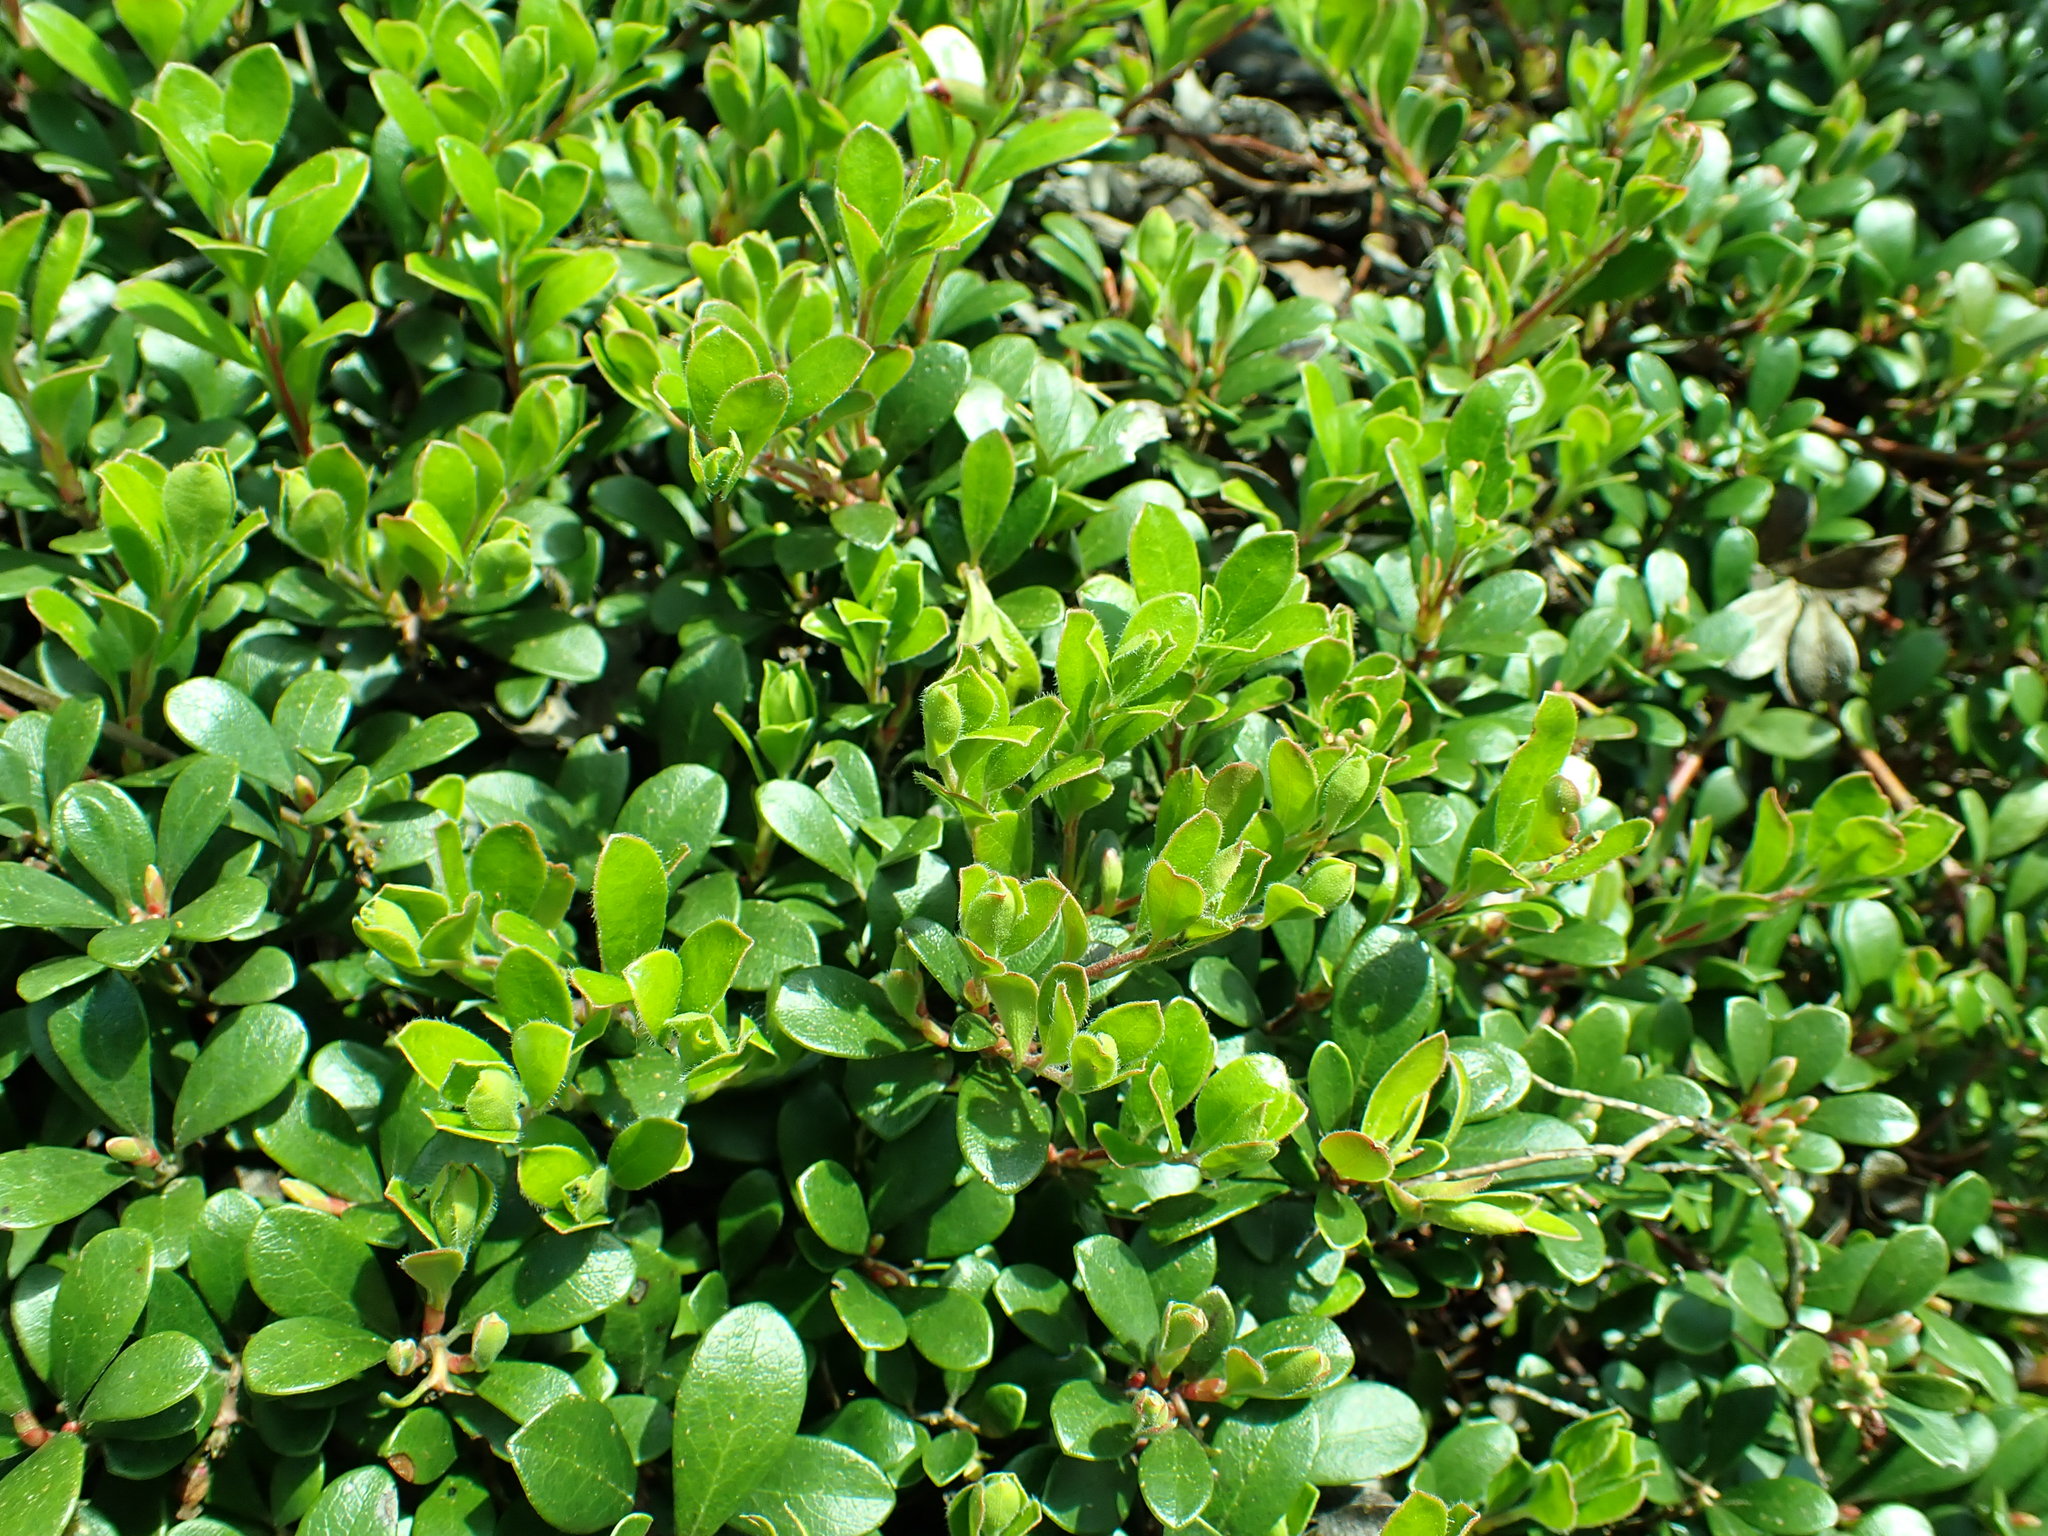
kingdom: Plantae
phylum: Tracheophyta
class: Magnoliopsida
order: Ericales
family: Ericaceae
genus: Arctostaphylos
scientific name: Arctostaphylos uva-ursi
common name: Bearberry
